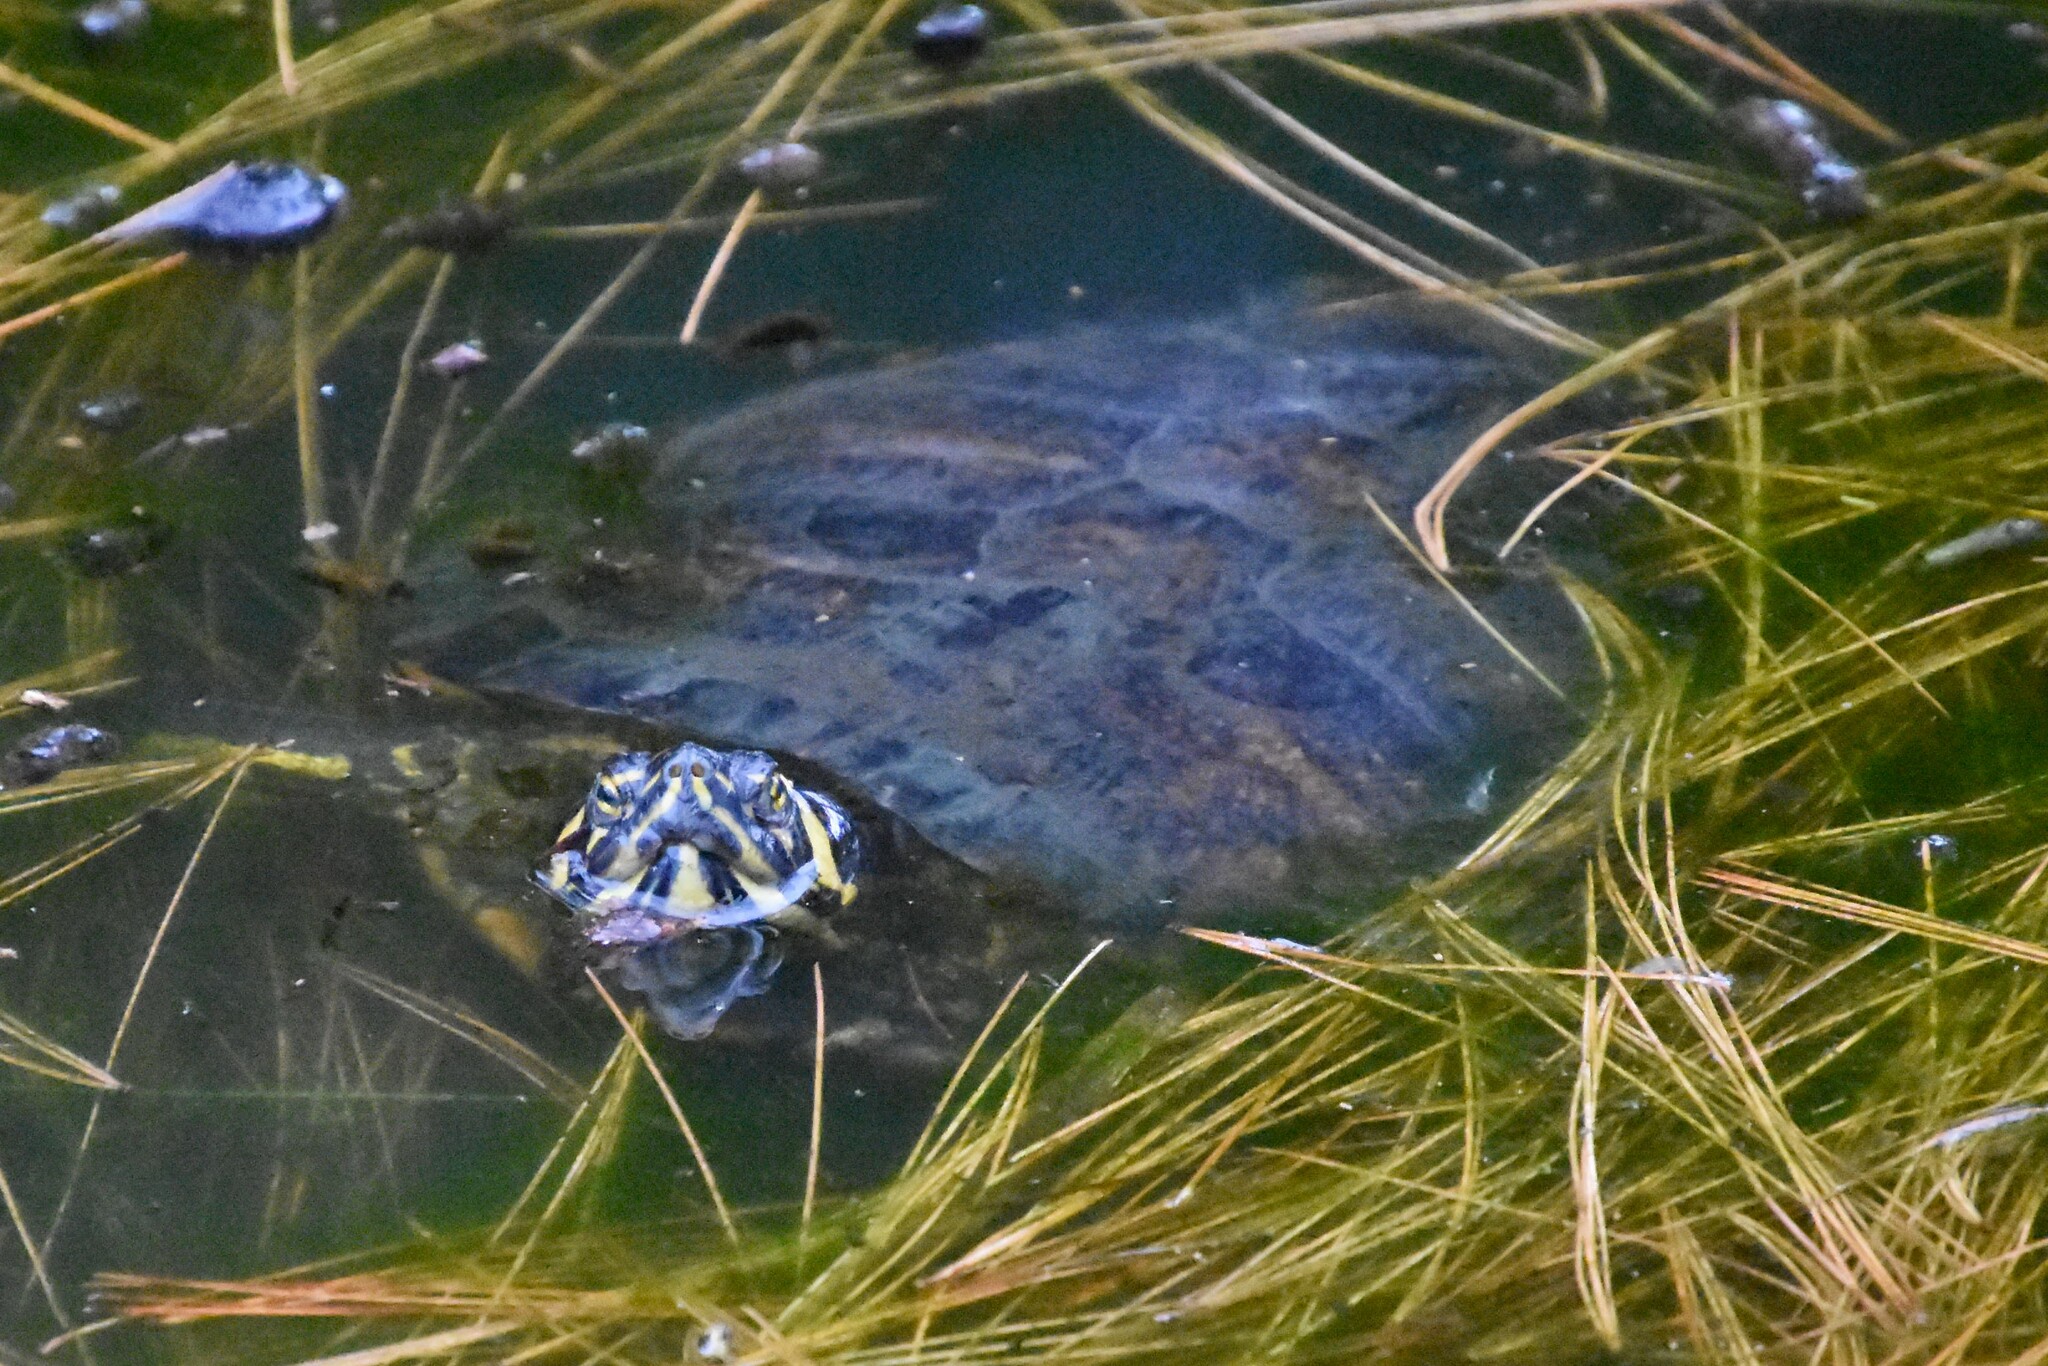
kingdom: Animalia
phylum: Chordata
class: Testudines
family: Emydidae
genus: Trachemys
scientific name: Trachemys scripta
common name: Slider
